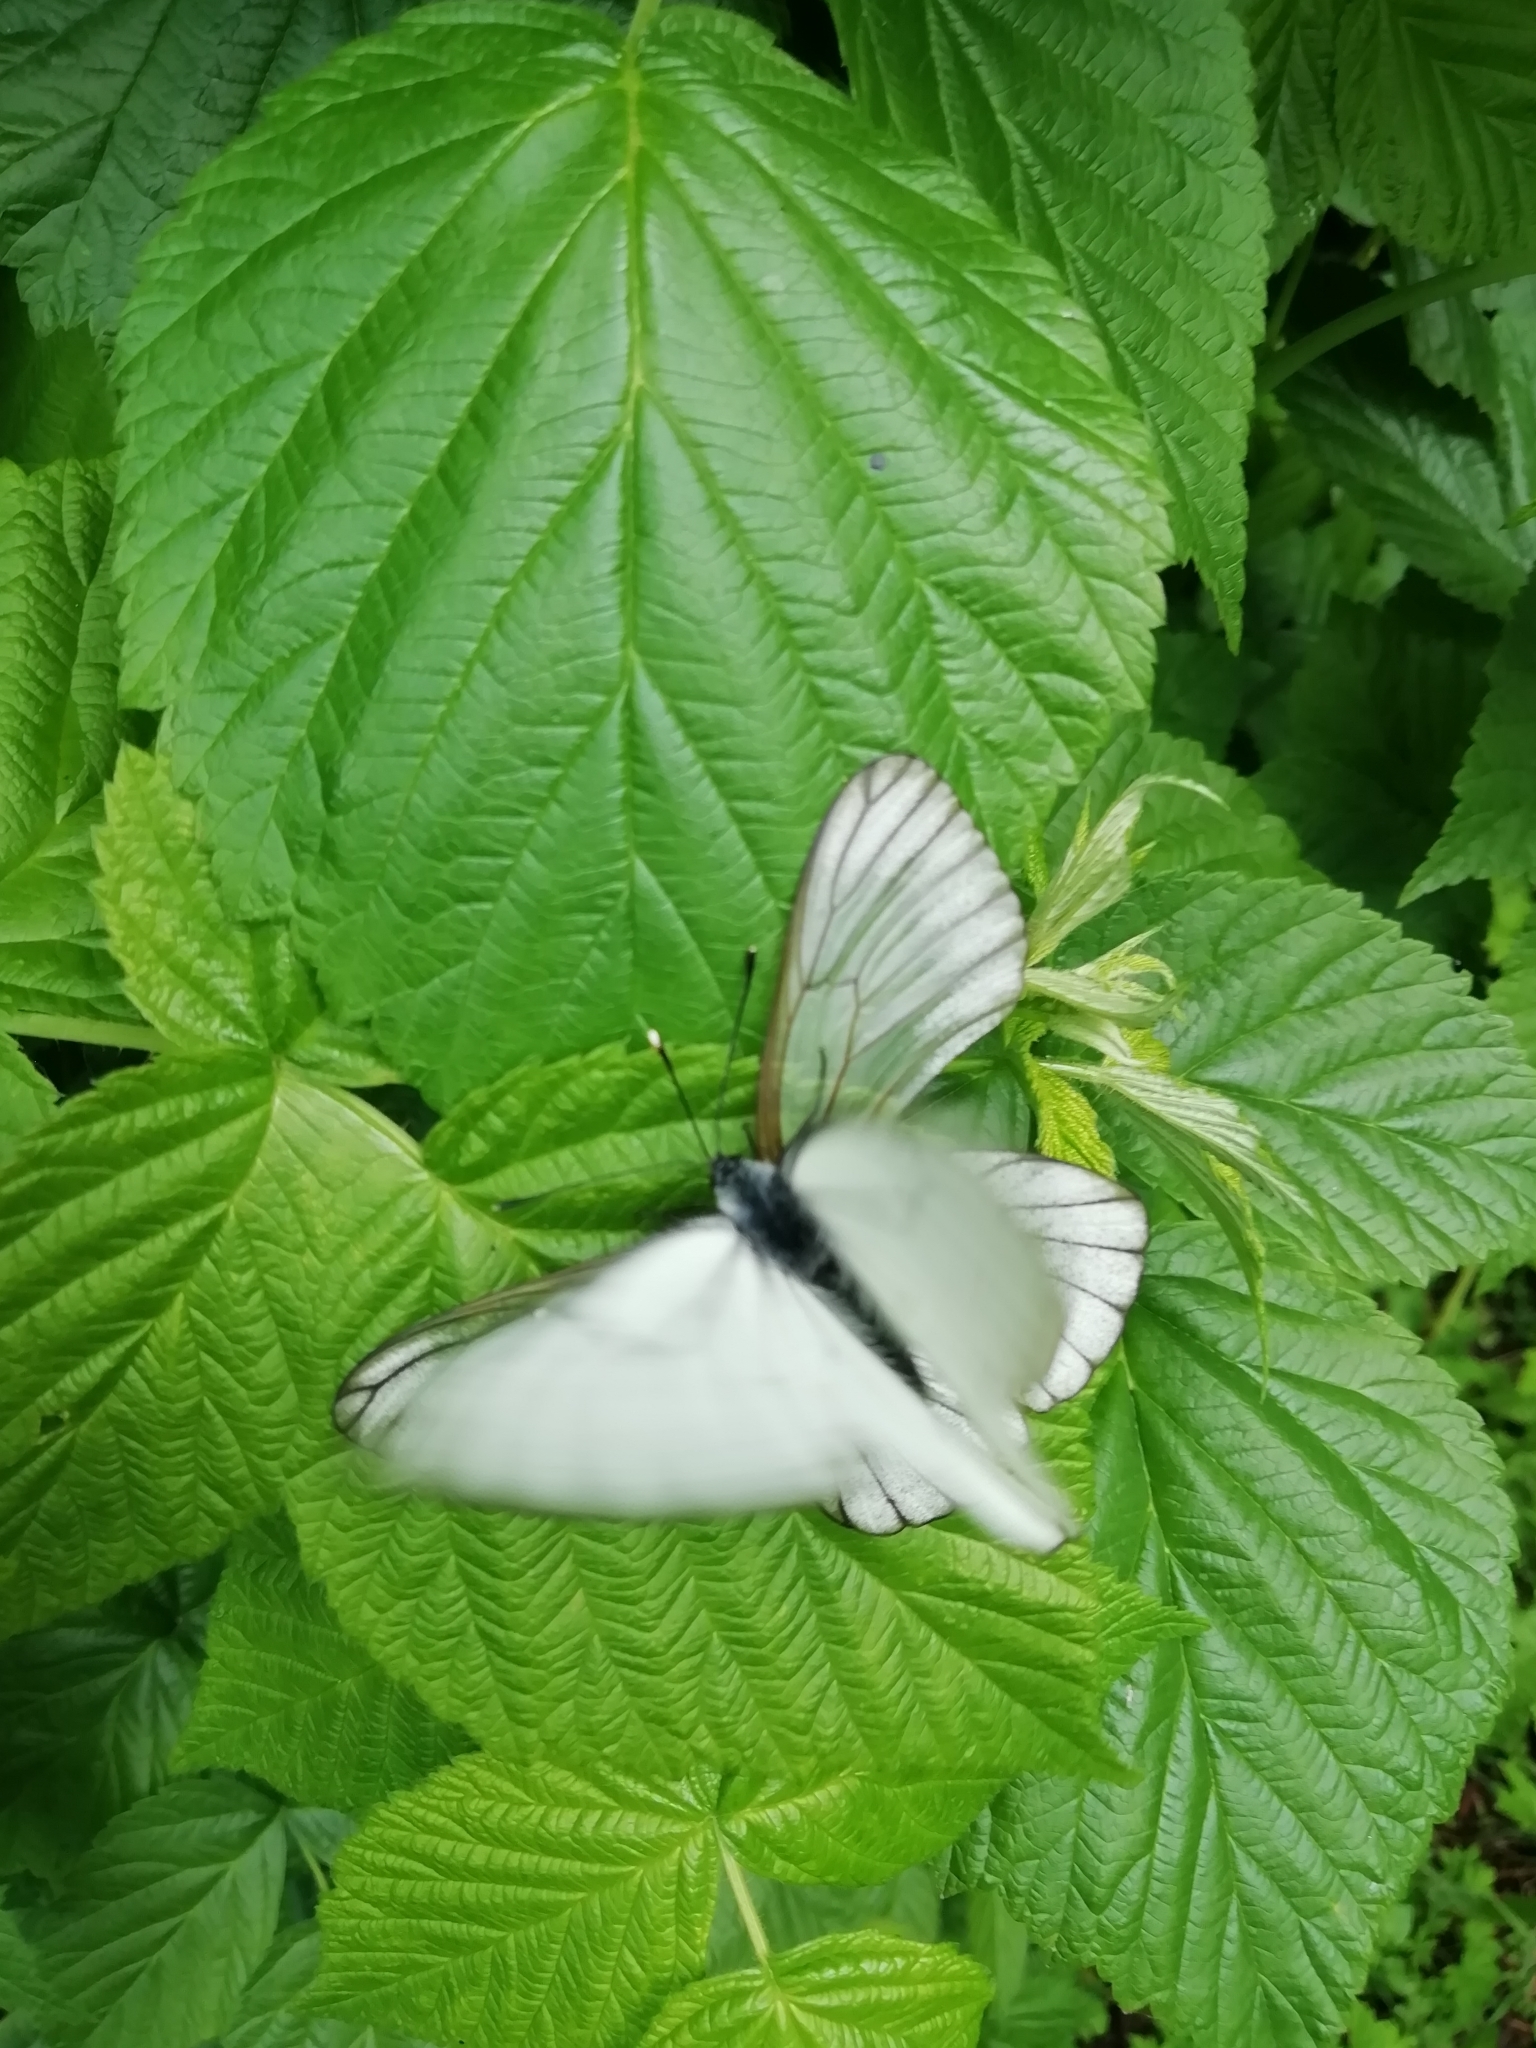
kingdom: Animalia
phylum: Arthropoda
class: Insecta
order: Lepidoptera
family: Pieridae
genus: Aporia
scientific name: Aporia crataegi
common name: Black-veined white
